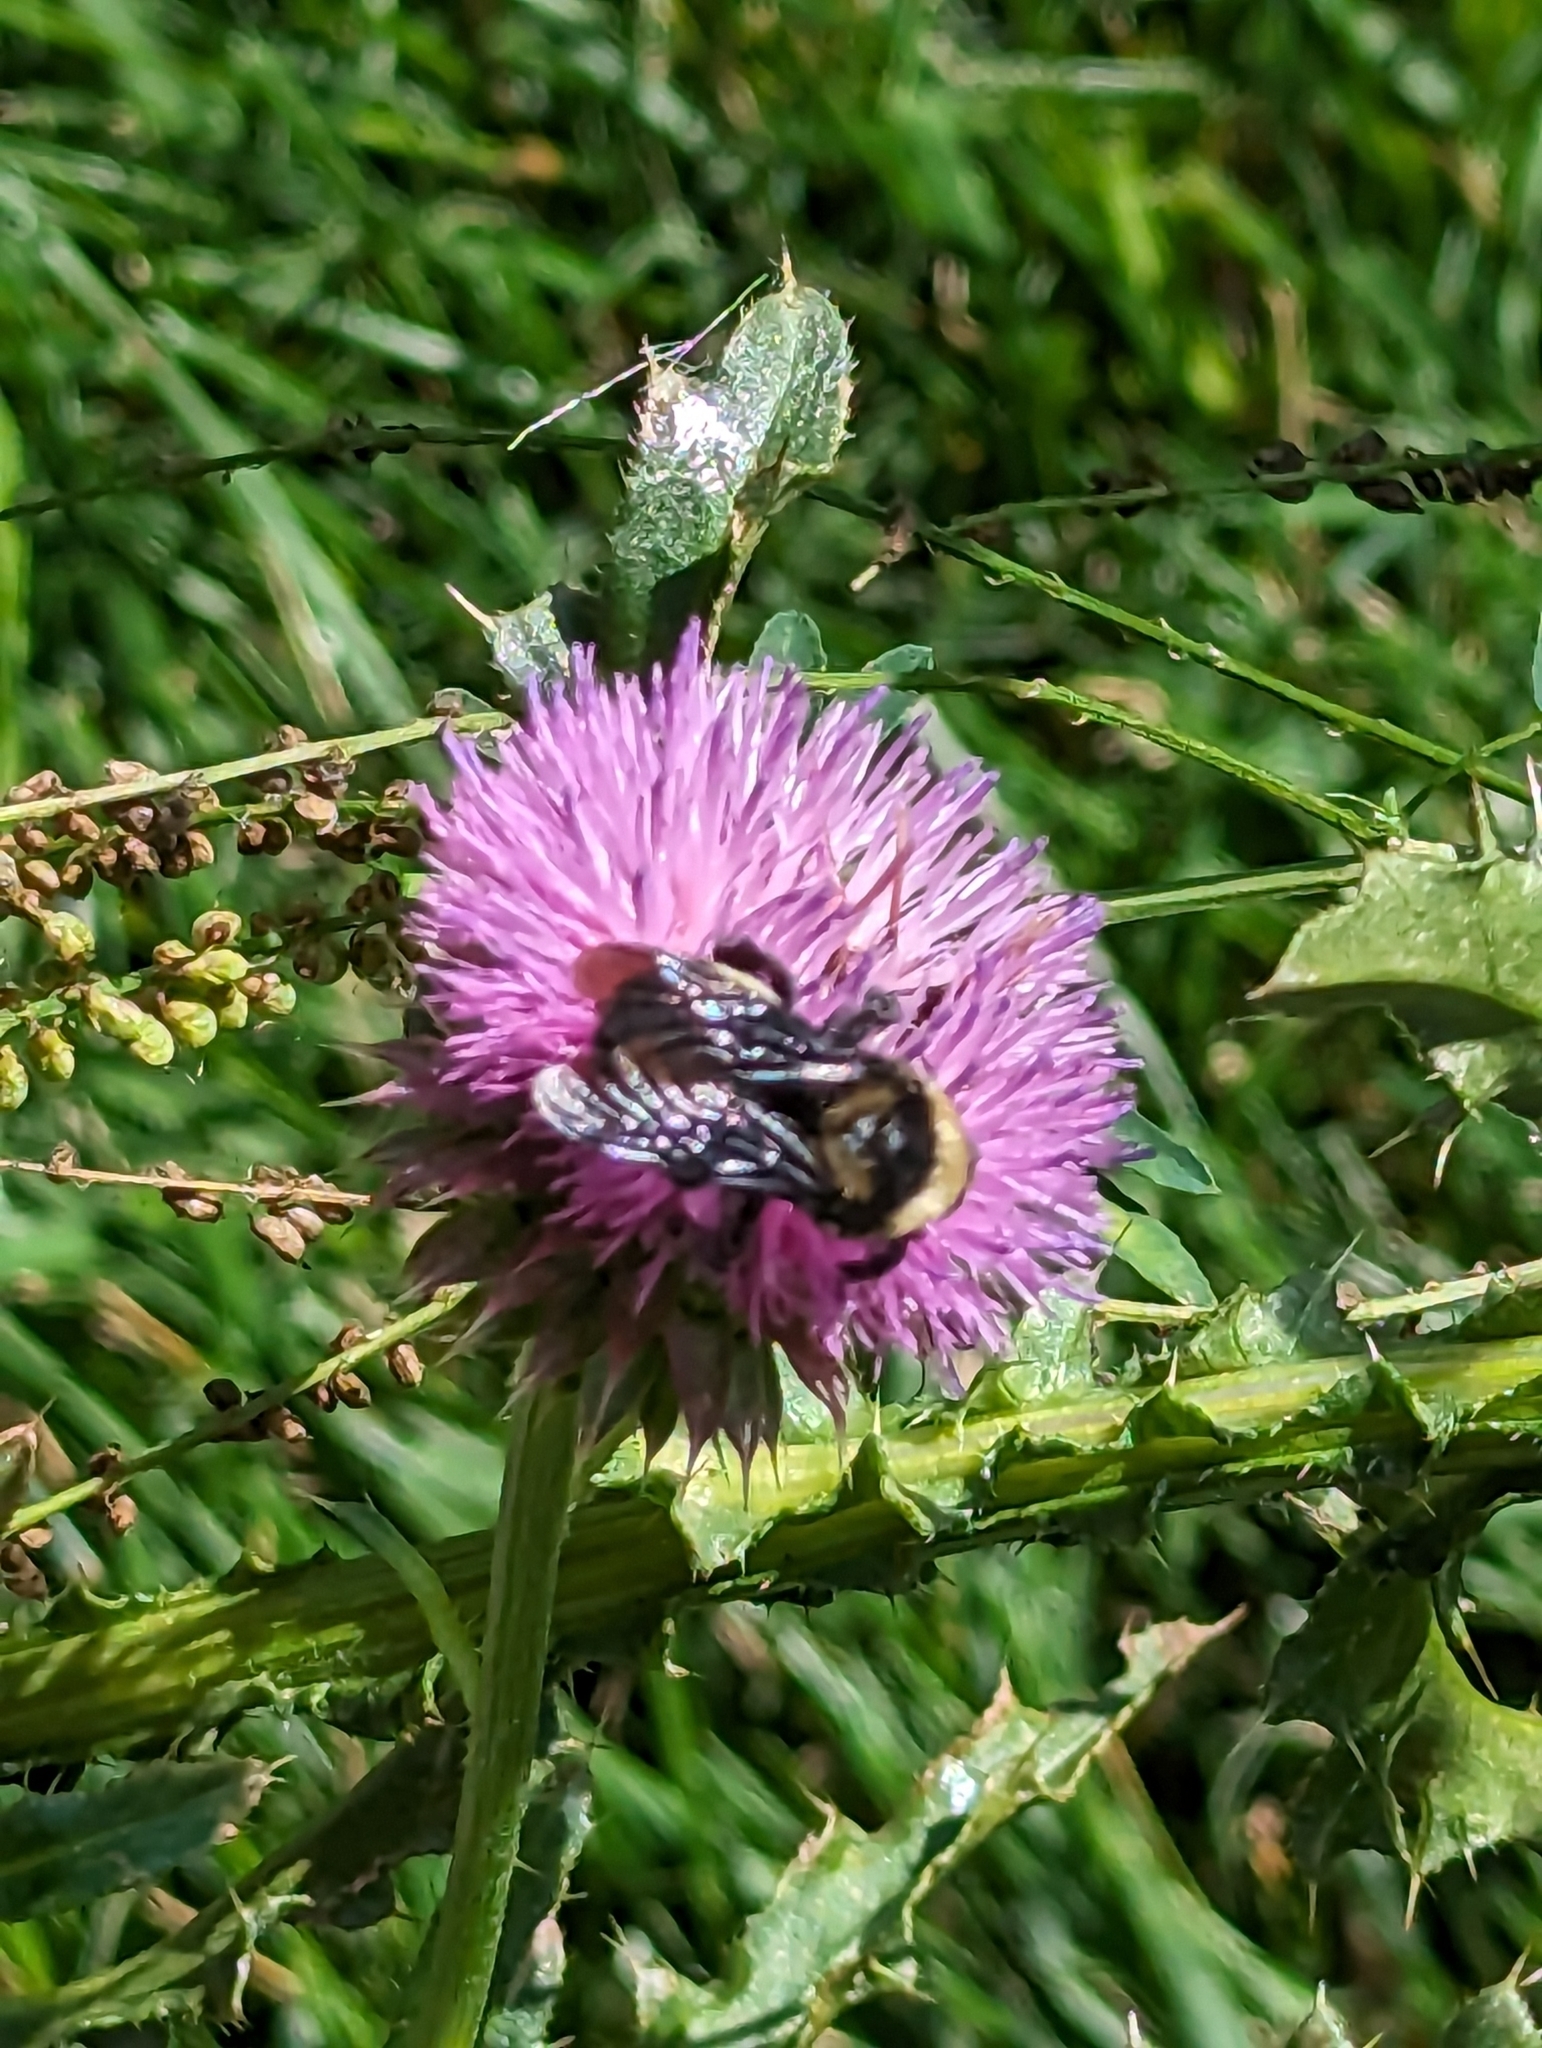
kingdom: Animalia
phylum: Arthropoda
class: Insecta
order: Hymenoptera
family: Apidae
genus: Bombus
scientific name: Bombus auricomus
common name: Black and gold bumble bee
